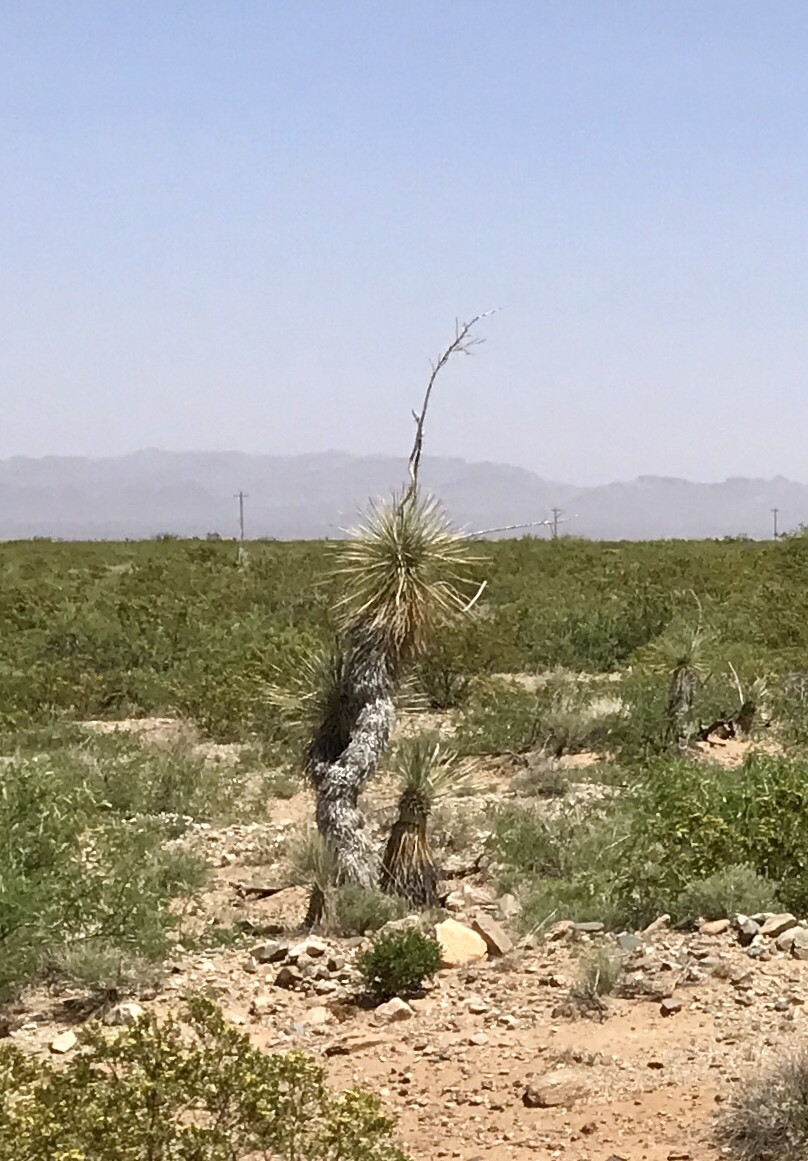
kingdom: Plantae
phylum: Tracheophyta
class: Liliopsida
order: Asparagales
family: Asparagaceae
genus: Yucca
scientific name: Yucca elata
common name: Palmella
